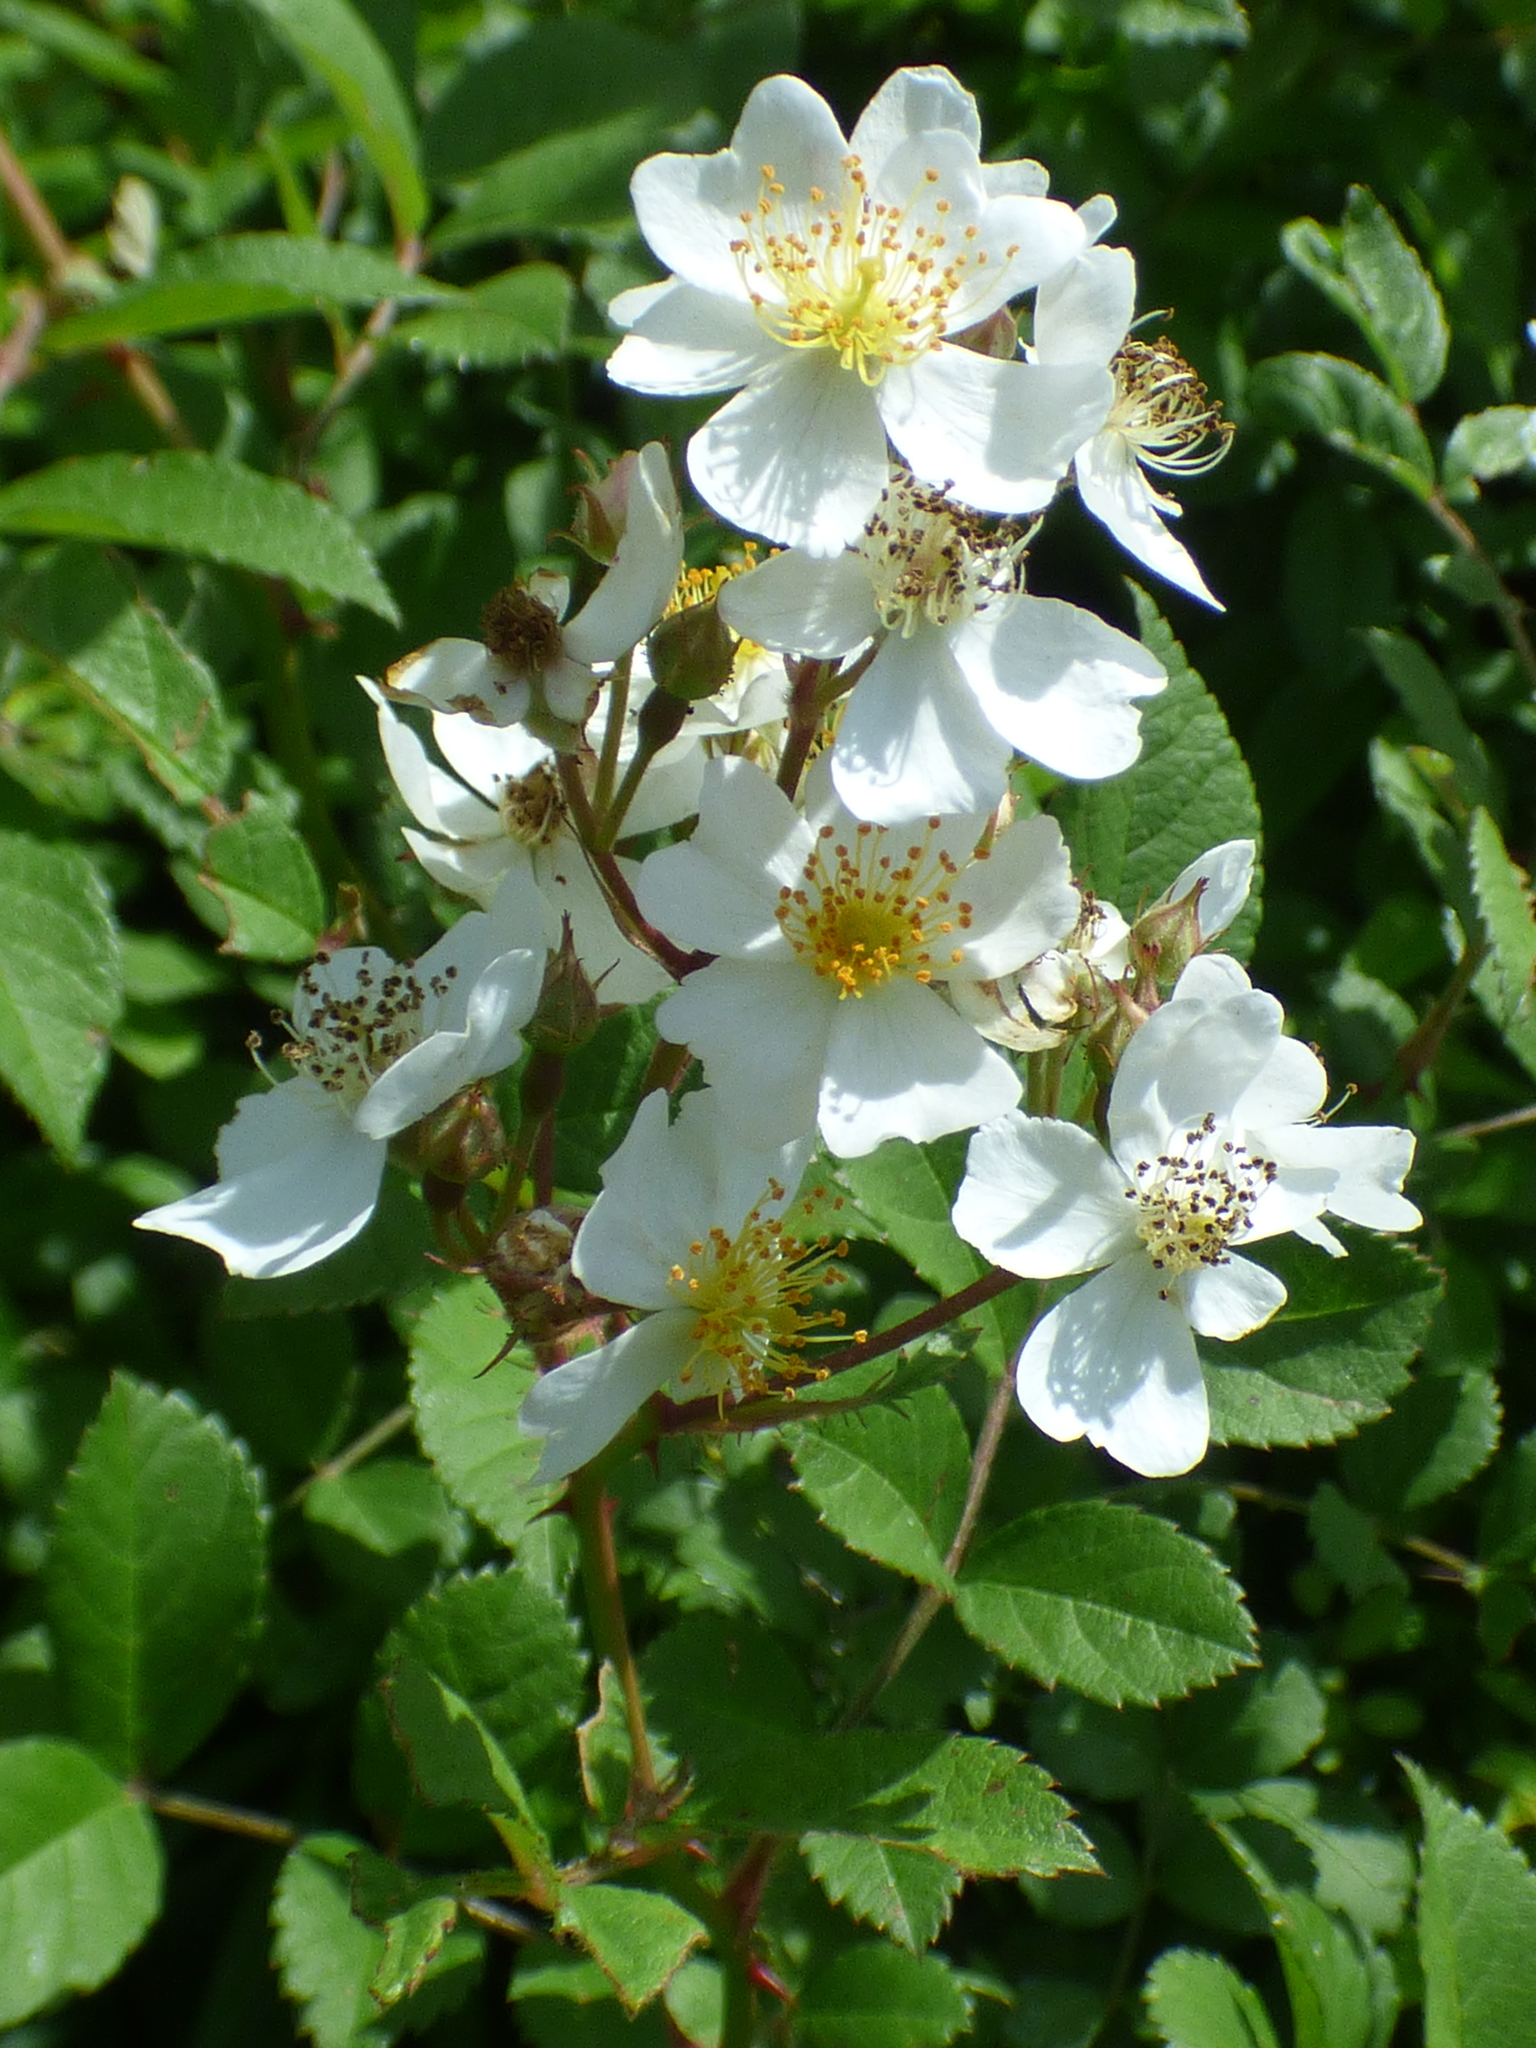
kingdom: Plantae
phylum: Tracheophyta
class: Magnoliopsida
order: Rosales
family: Rosaceae
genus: Rosa
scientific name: Rosa multiflora
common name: Multiflora rose
